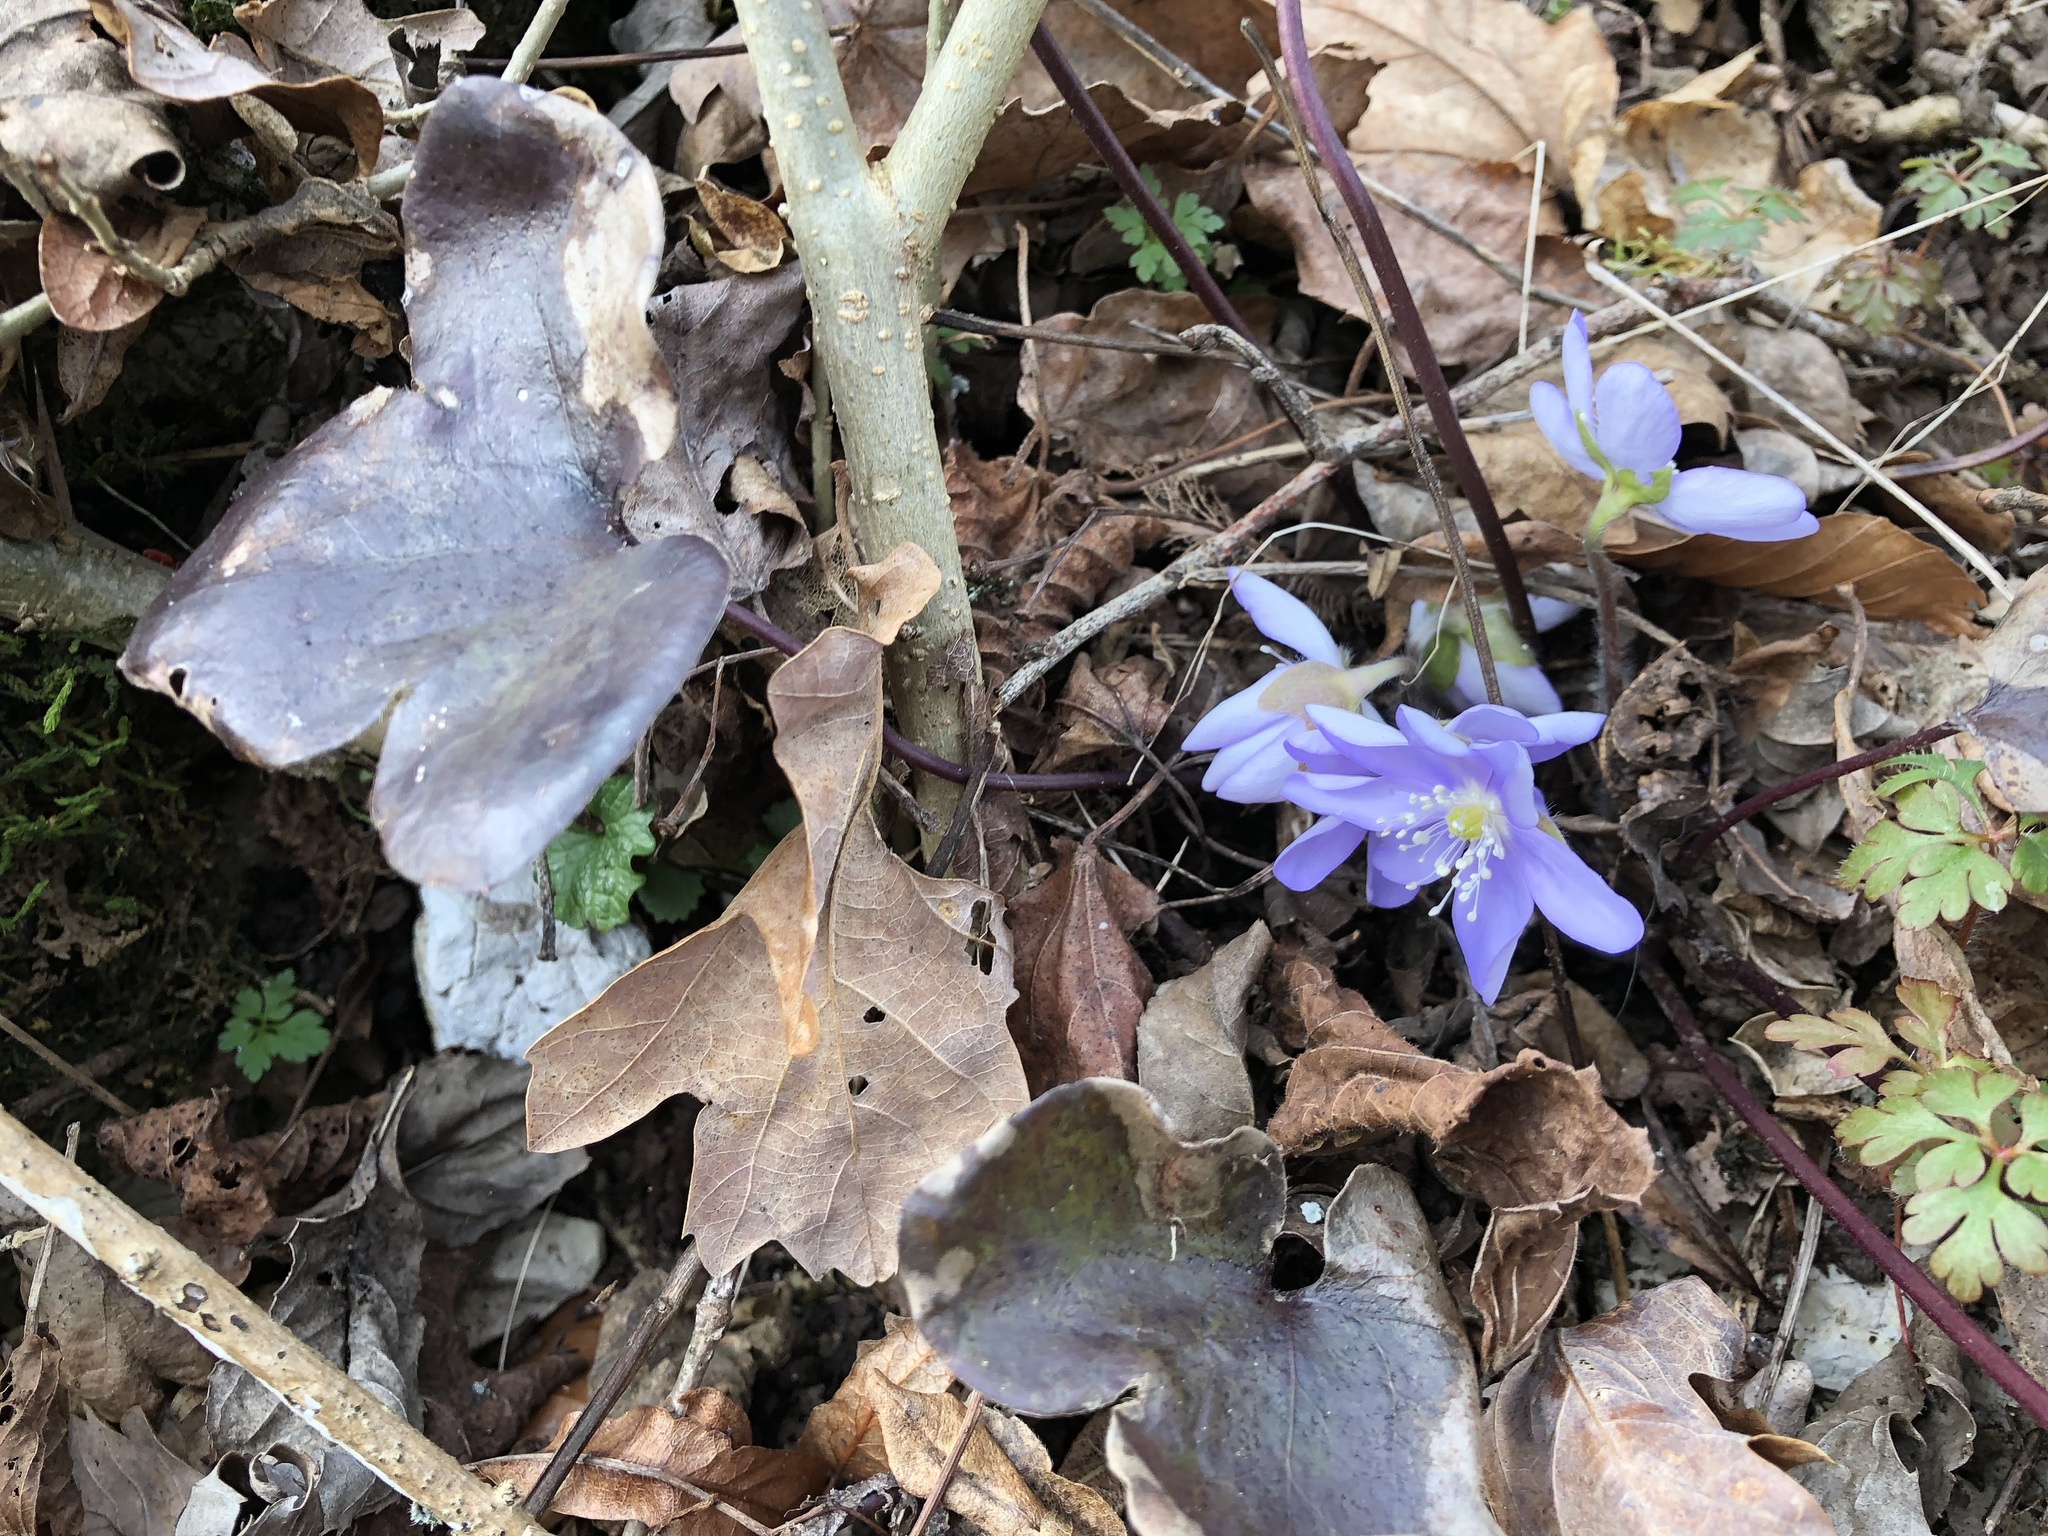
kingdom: Plantae
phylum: Tracheophyta
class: Magnoliopsida
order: Ranunculales
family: Ranunculaceae
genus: Hepatica
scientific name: Hepatica nobilis
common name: Liverleaf
